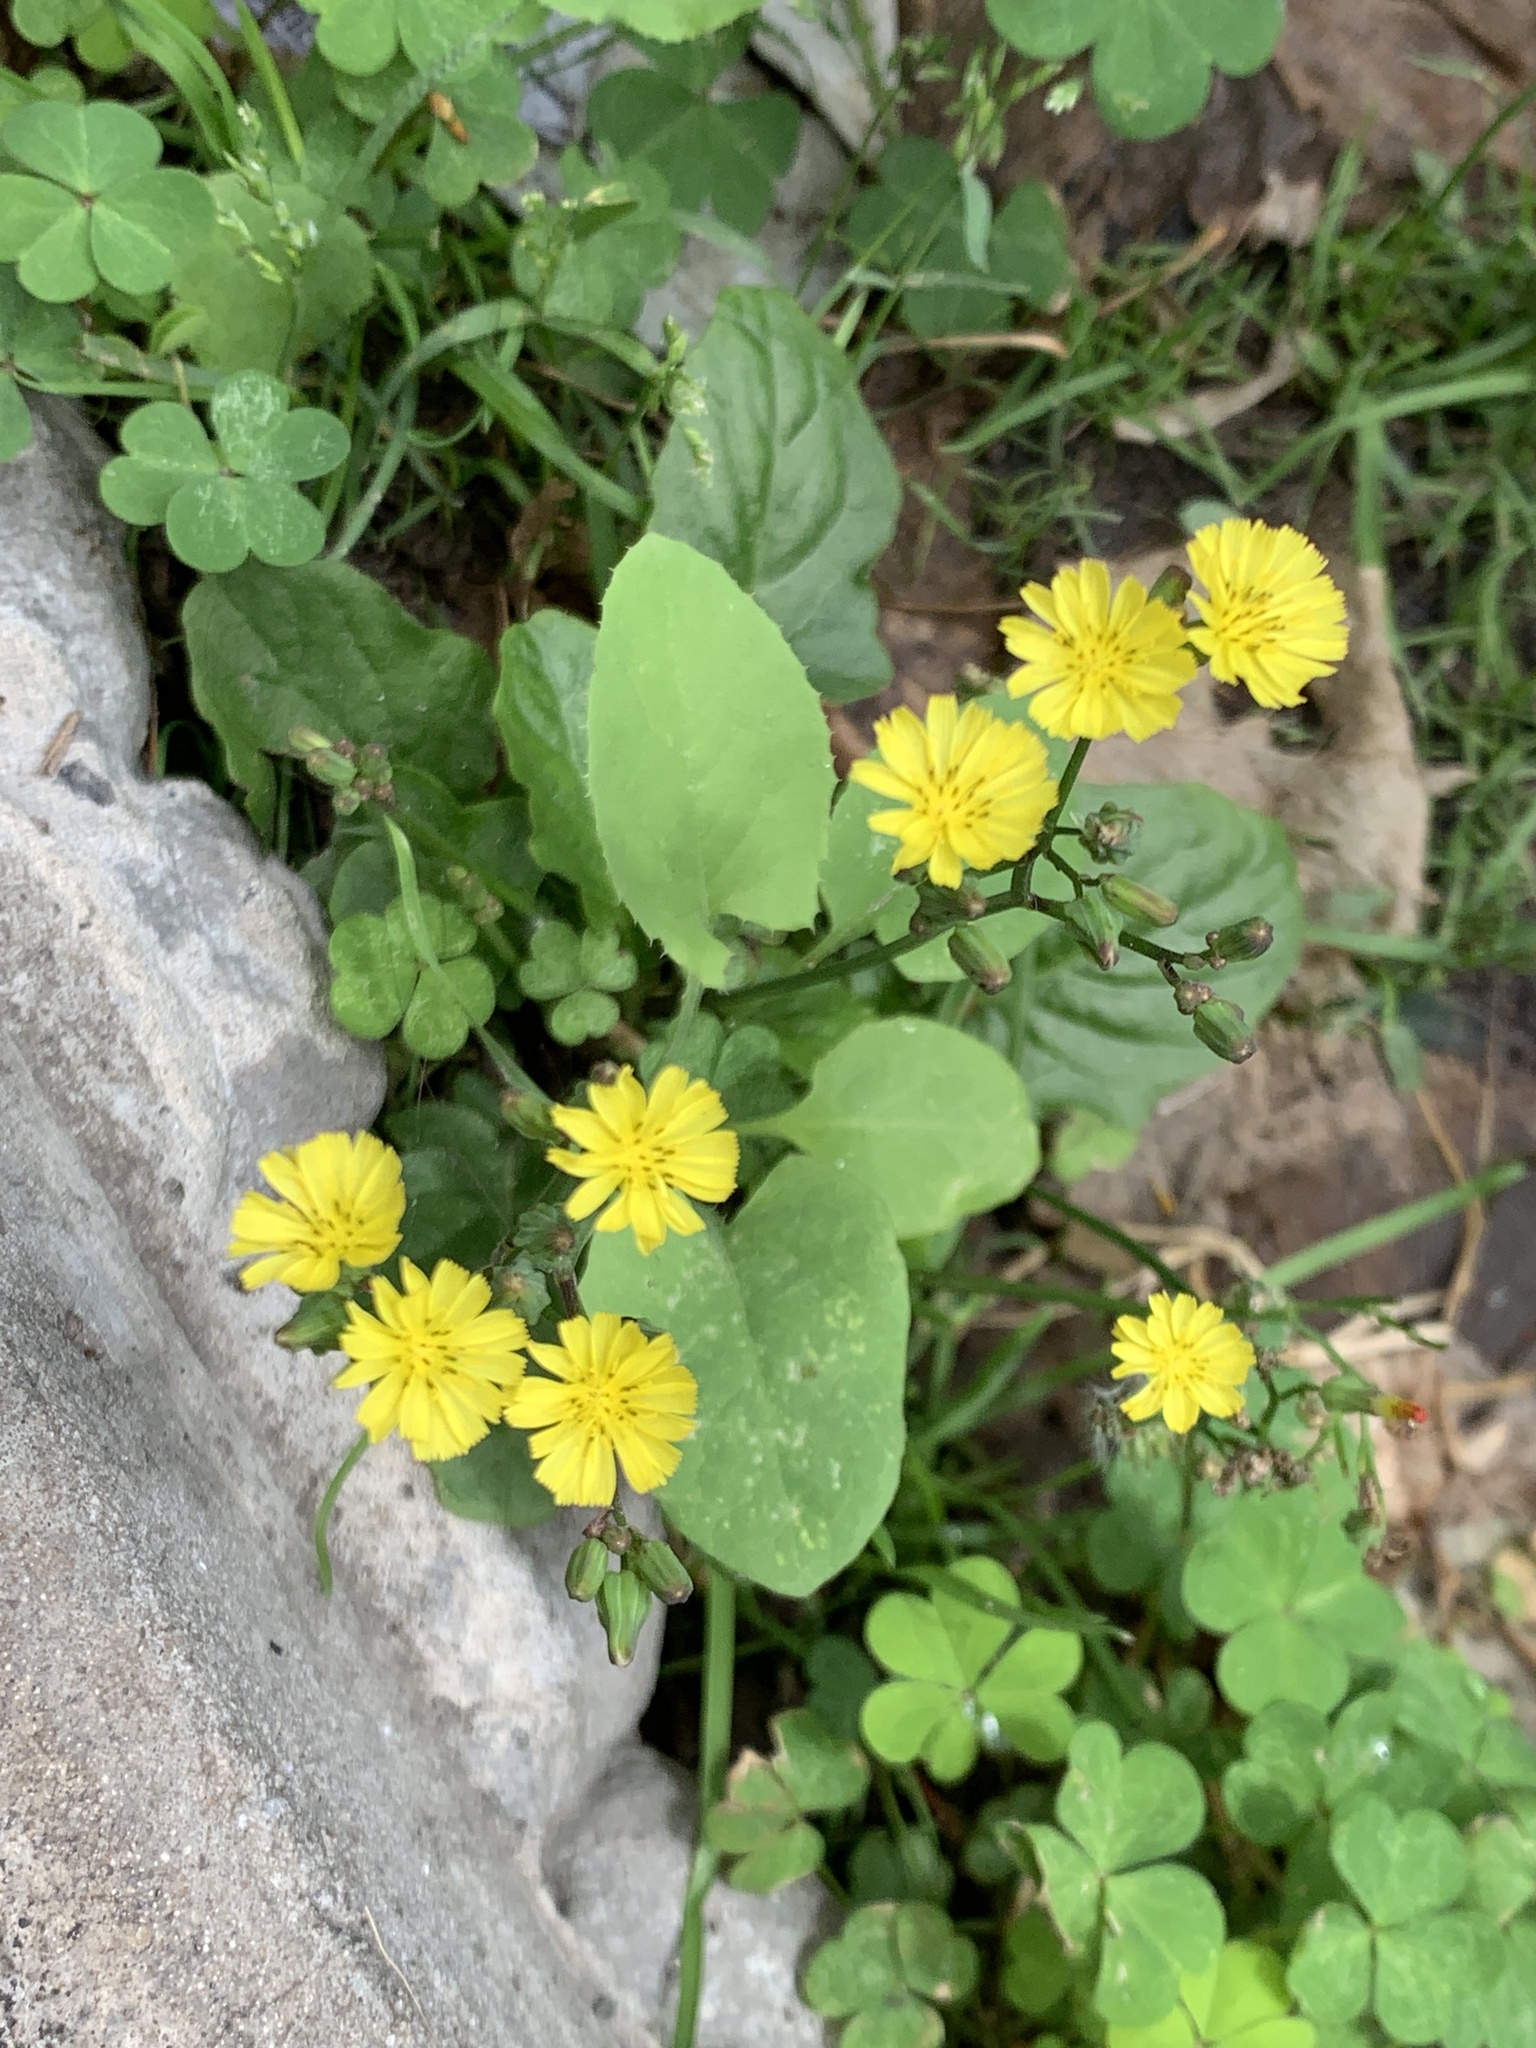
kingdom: Plantae
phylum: Tracheophyta
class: Magnoliopsida
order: Asterales
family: Asteraceae
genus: Youngia
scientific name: Youngia japonica
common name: Oriental false hawksbeard
